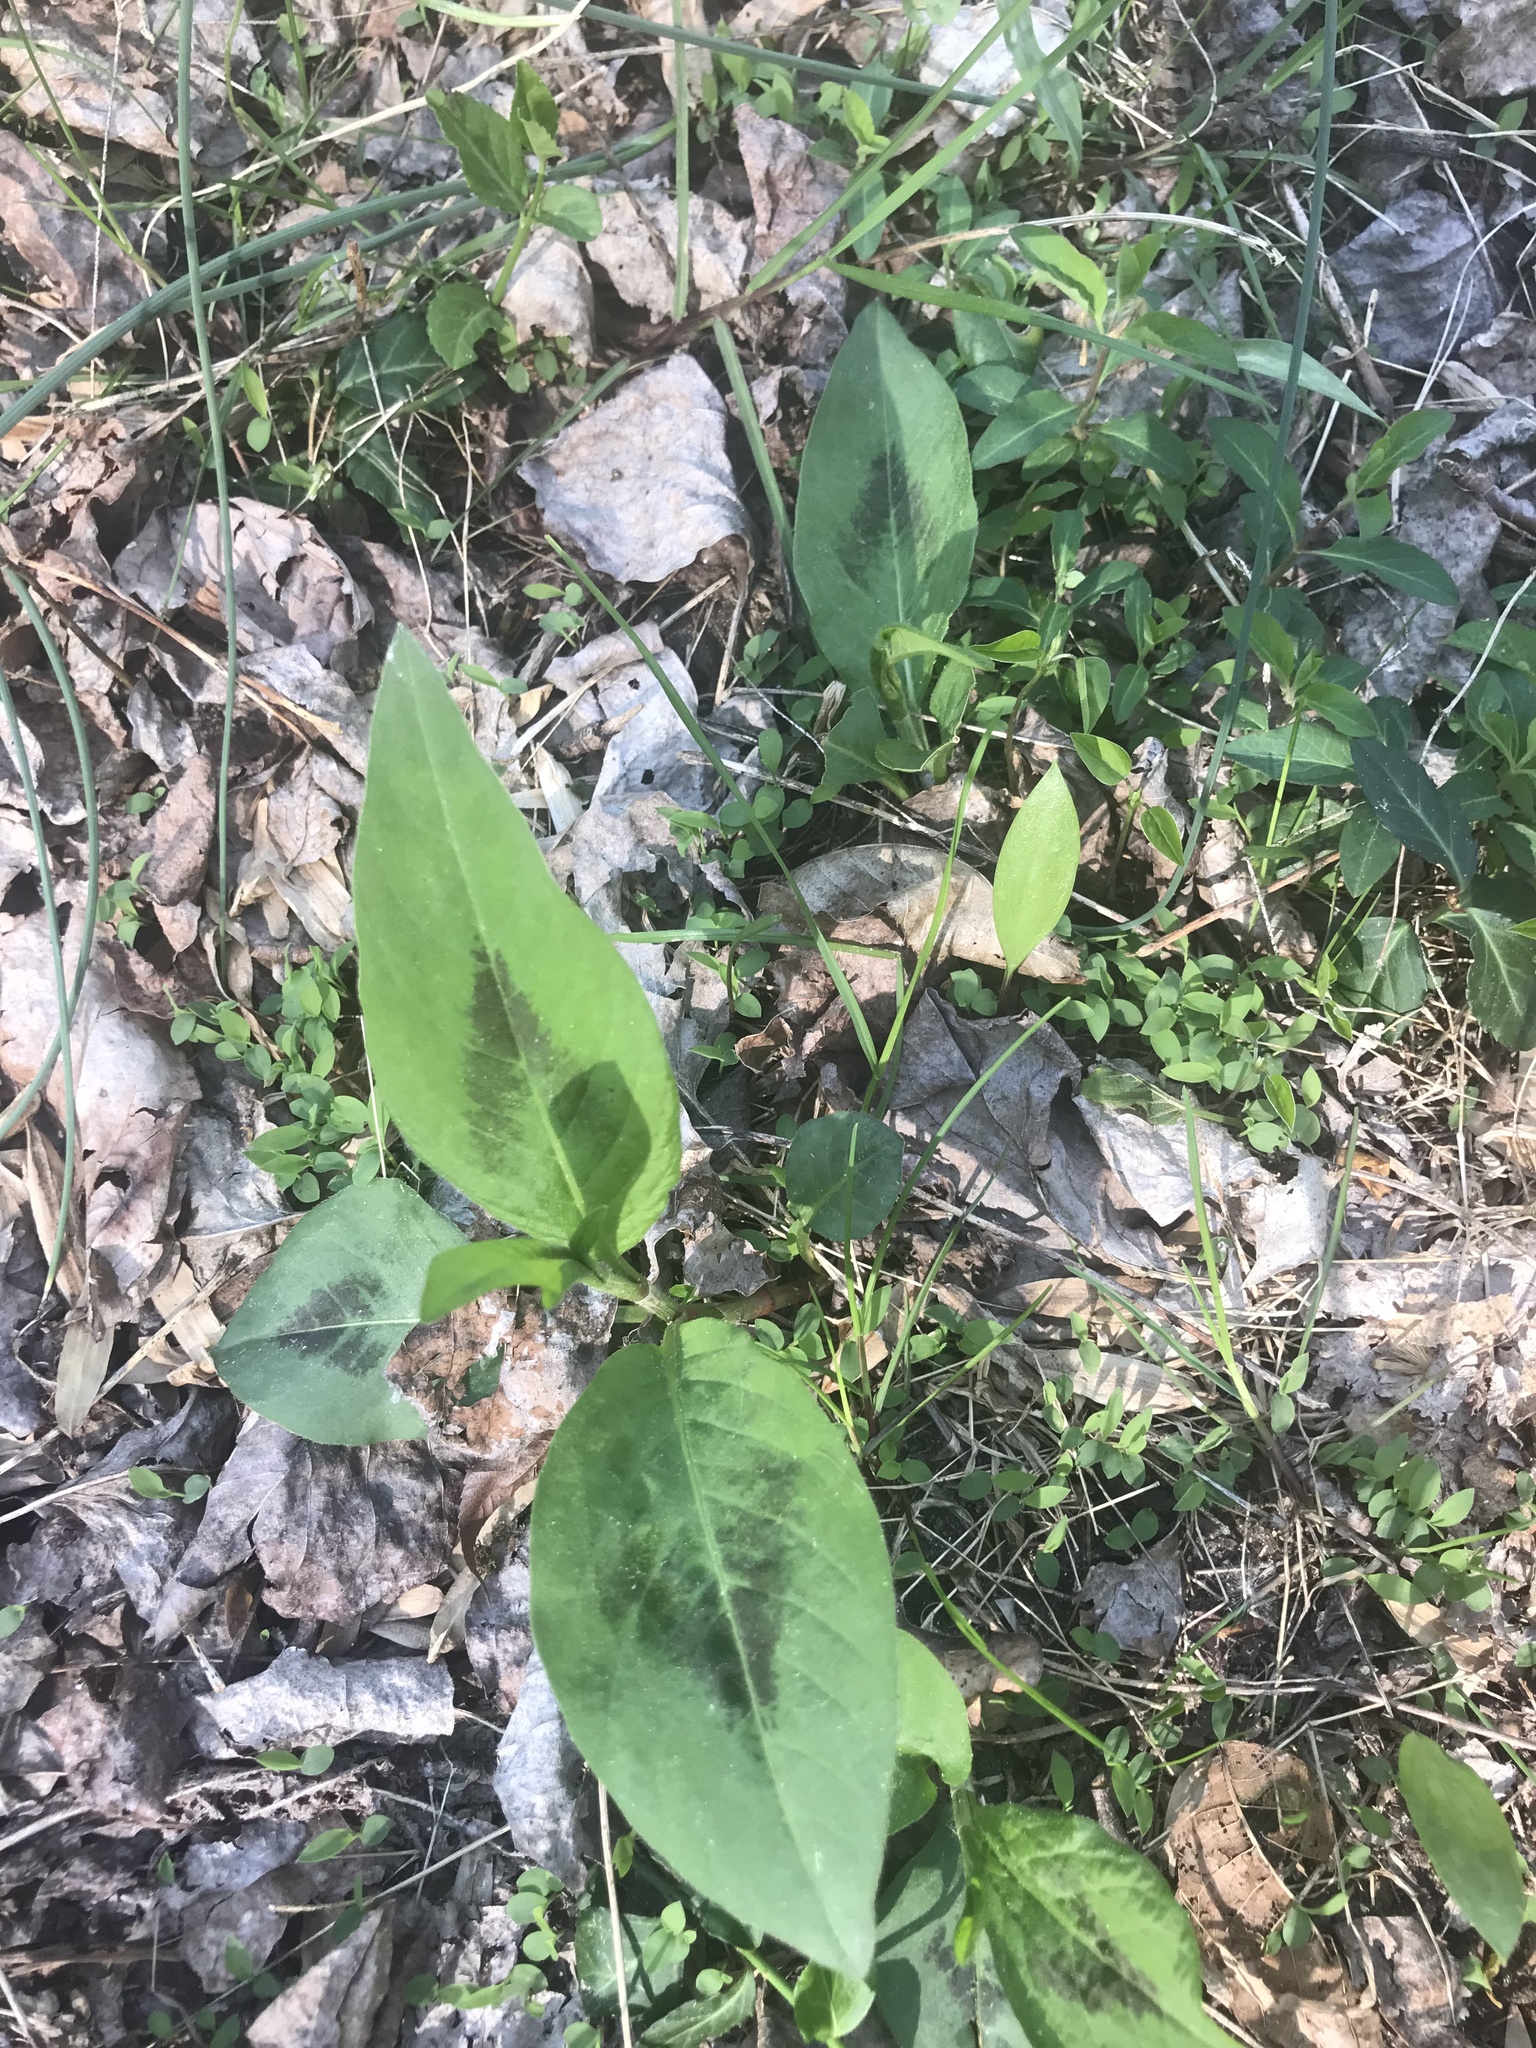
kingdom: Plantae
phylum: Tracheophyta
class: Magnoliopsida
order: Caryophyllales
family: Polygonaceae
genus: Persicaria
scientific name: Persicaria virginiana
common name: Jumpseed
